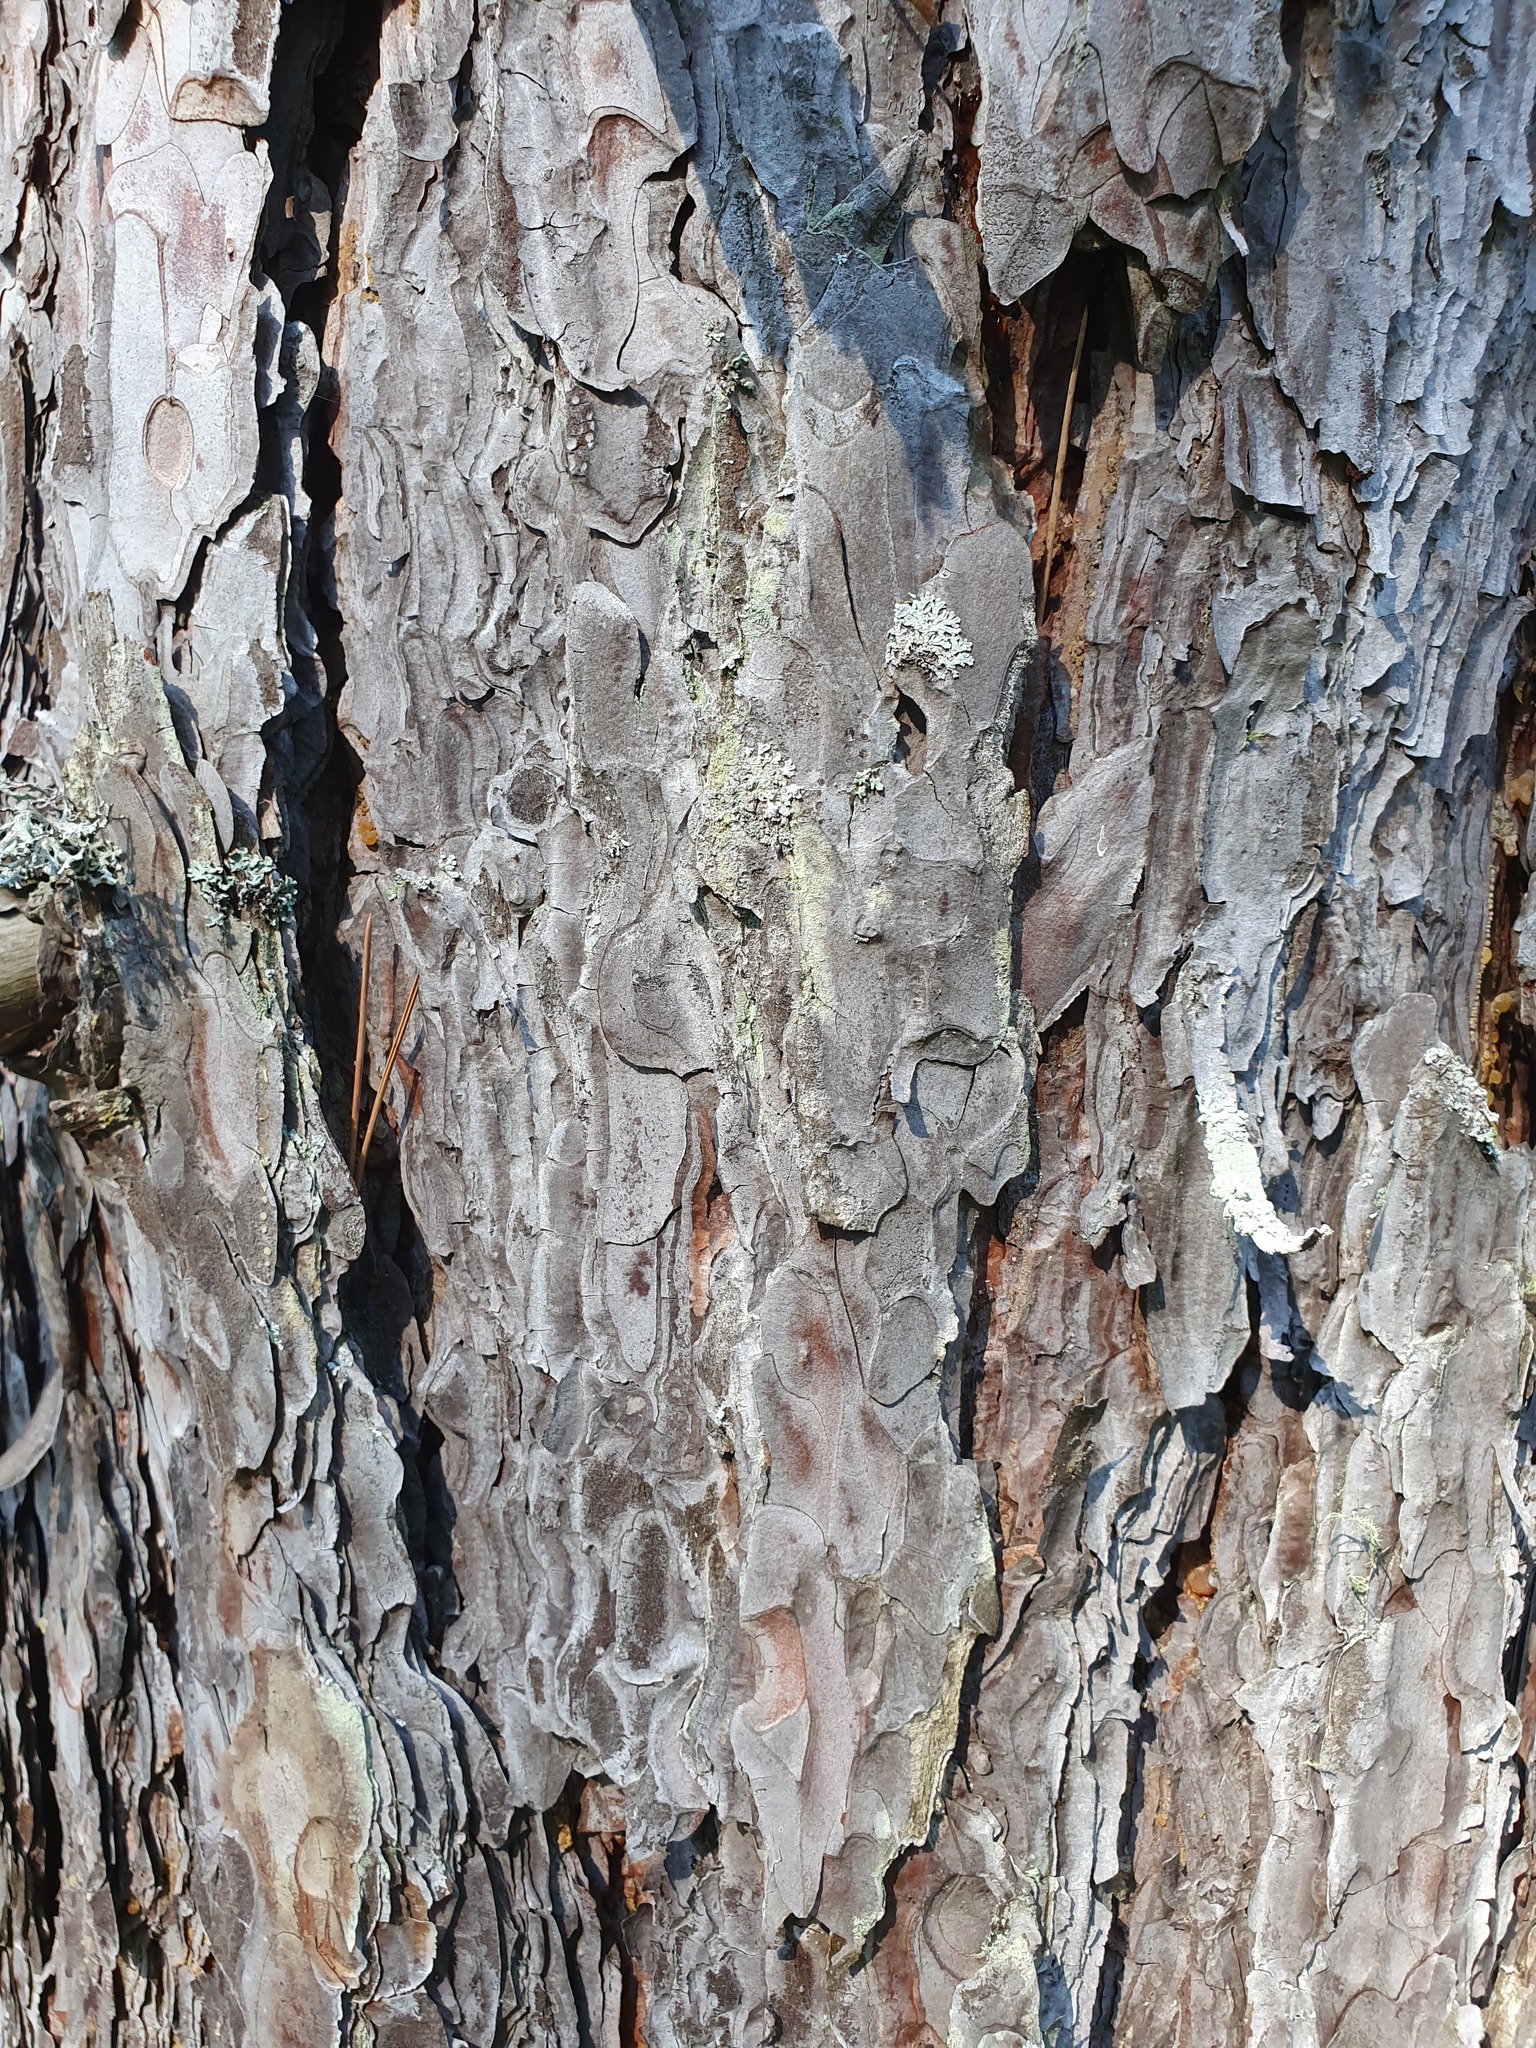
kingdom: Plantae
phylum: Tracheophyta
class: Pinopsida
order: Pinales
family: Pinaceae
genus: Pinus
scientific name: Pinus nigra
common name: Austrian pine
